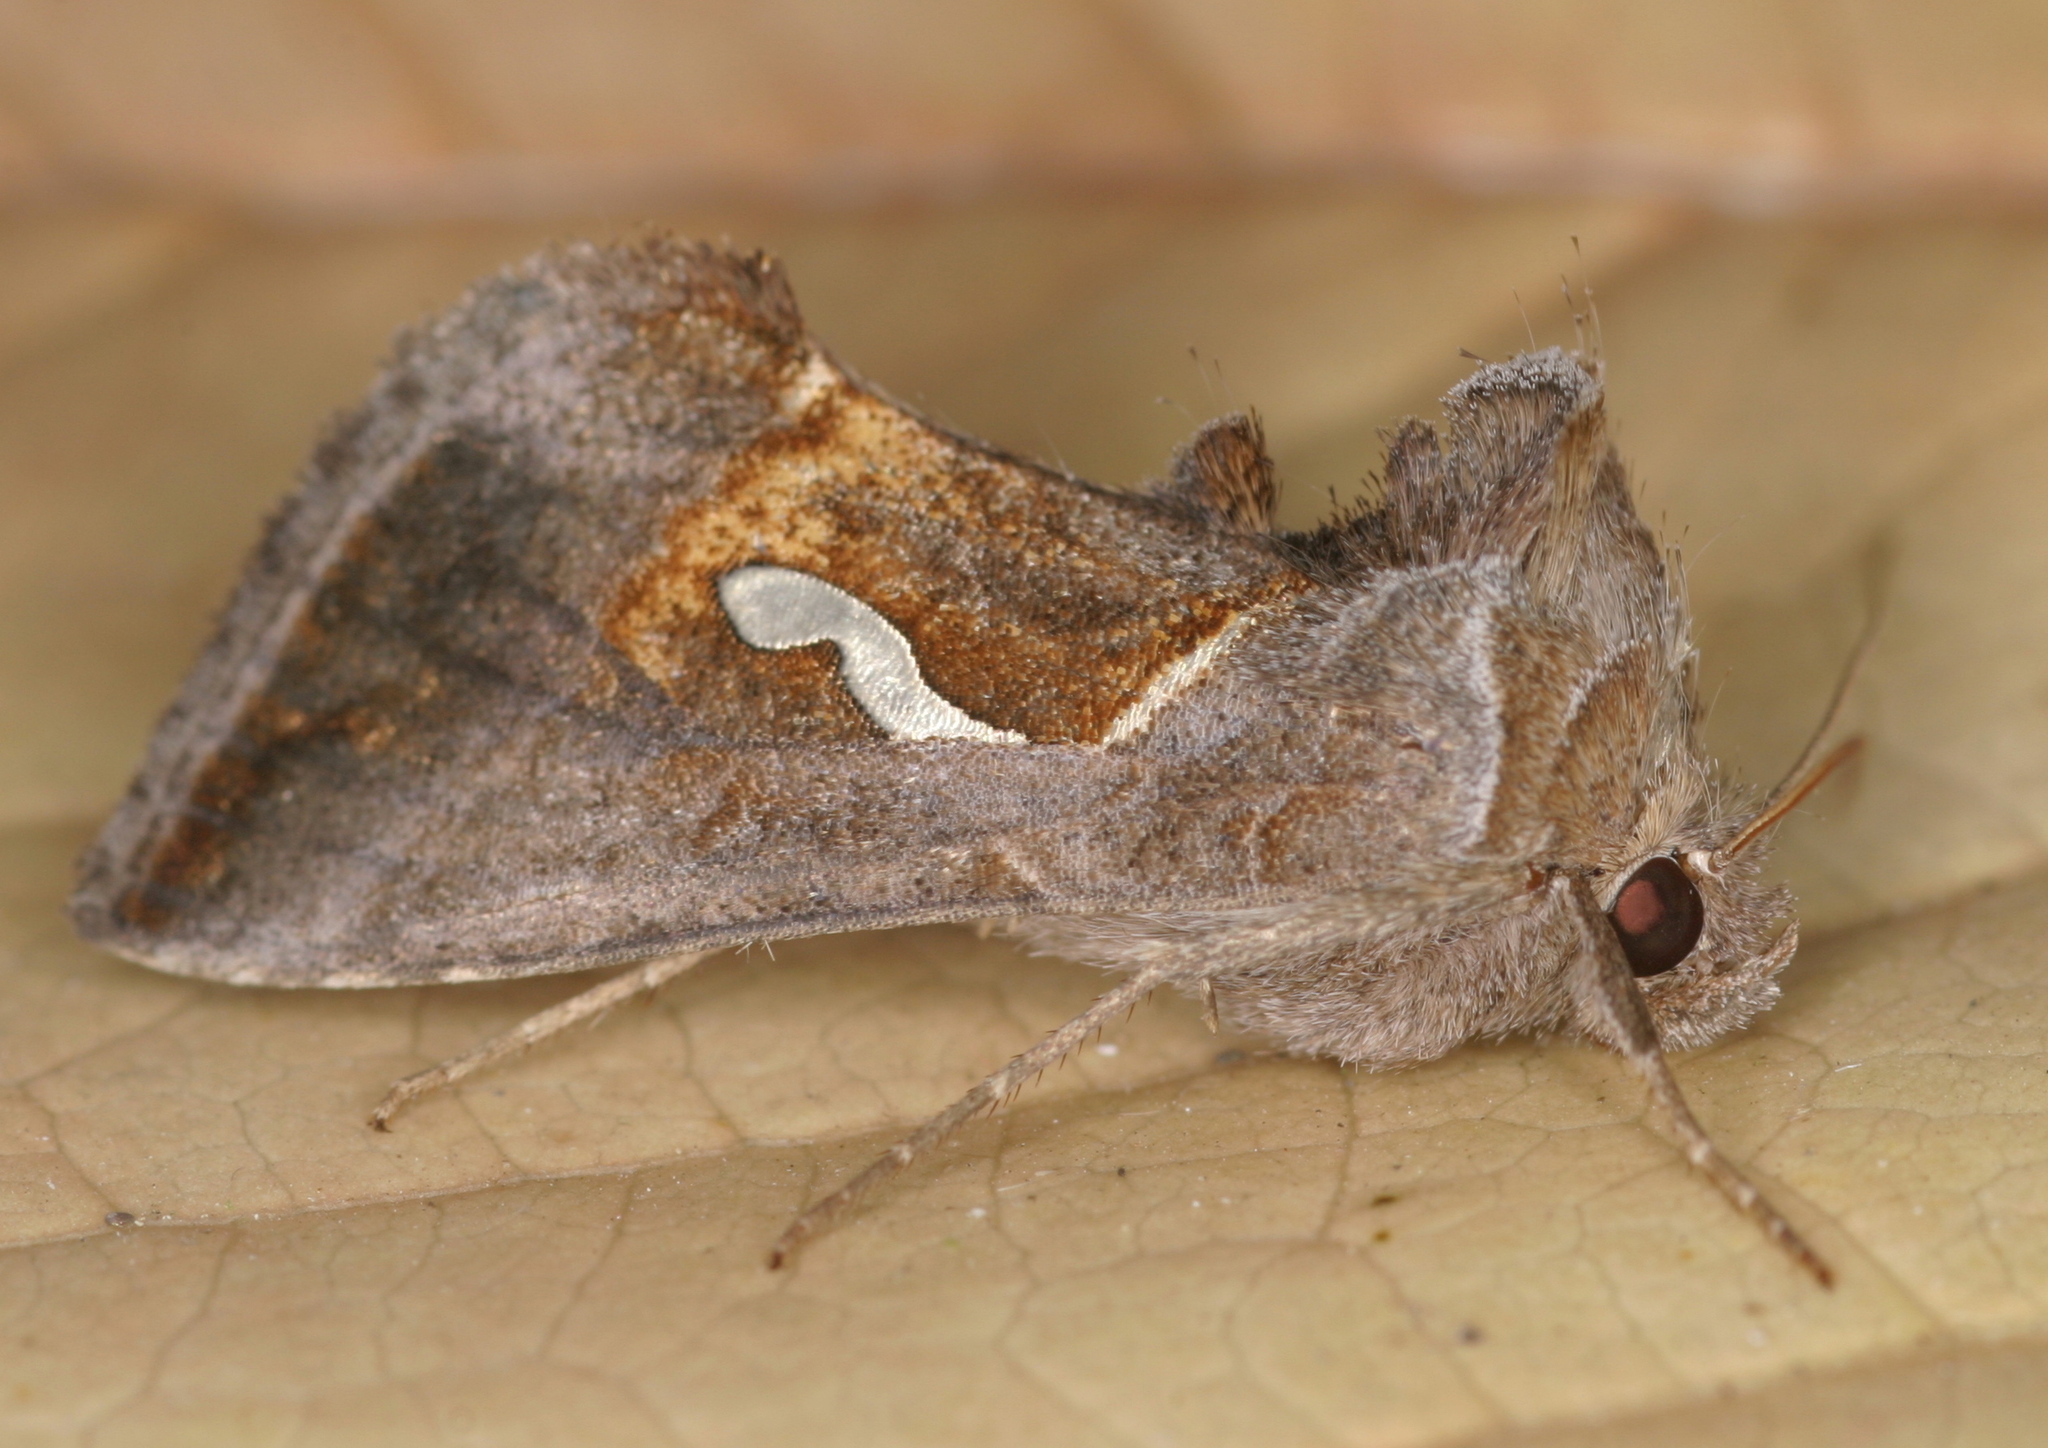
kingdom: Animalia
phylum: Arthropoda
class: Insecta
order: Lepidoptera
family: Noctuidae
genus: Macdunnoughia
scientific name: Macdunnoughia confusa
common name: Dewick's plusia
